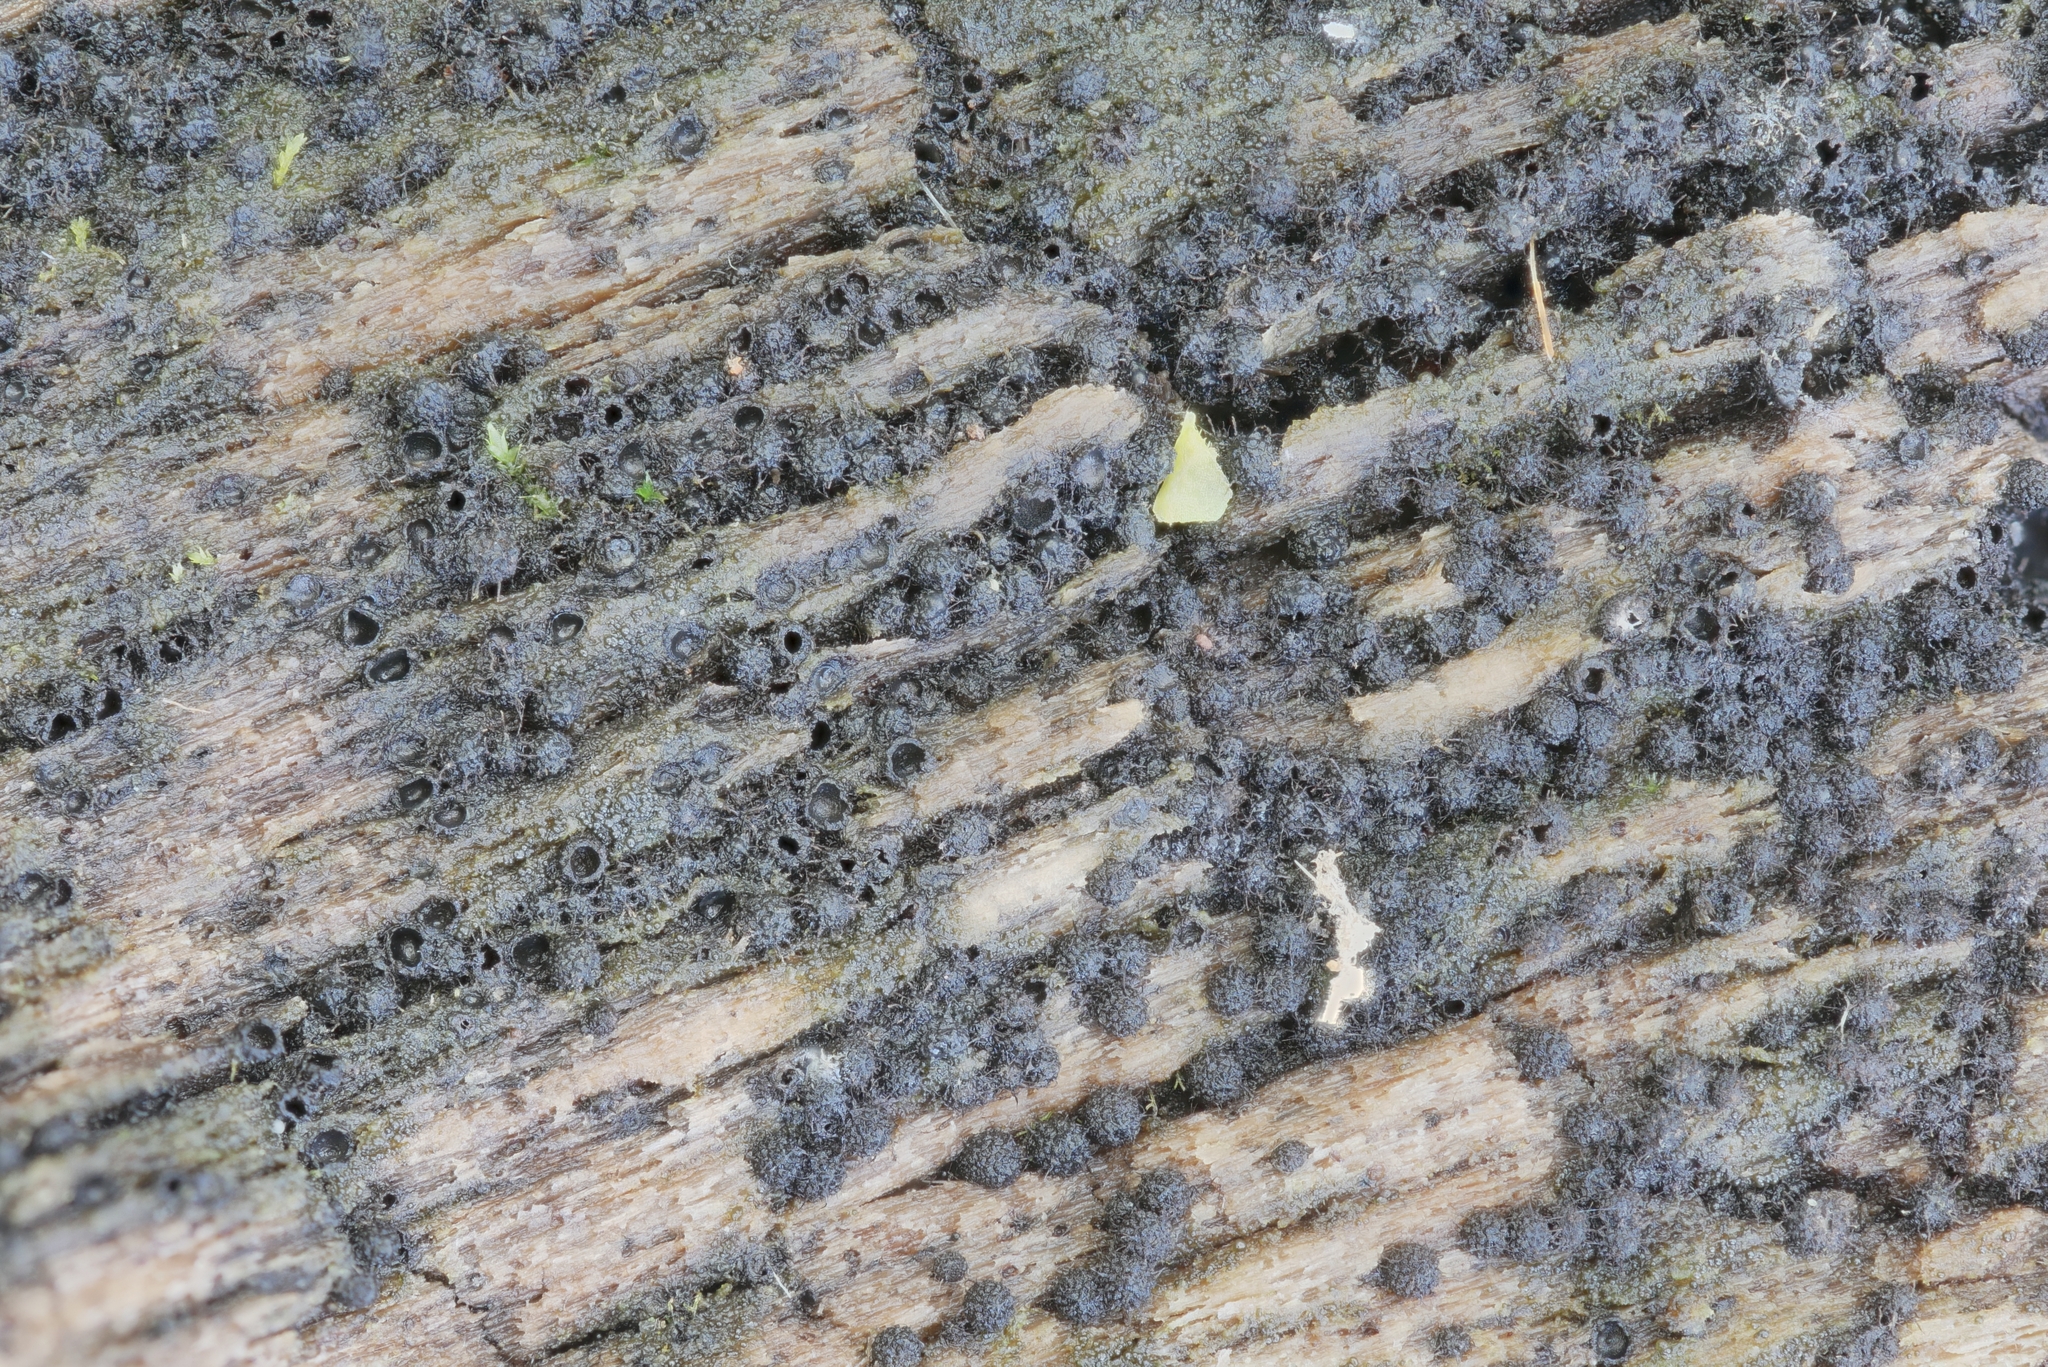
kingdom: Fungi
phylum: Ascomycota
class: Dothideomycetes
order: Pleosporales
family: Anteagloniaceae
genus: Anteaglonium
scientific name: Anteaglonium globosum
